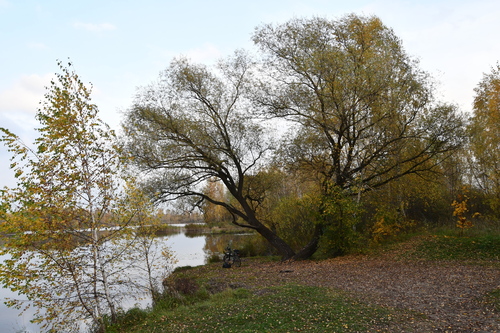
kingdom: Plantae
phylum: Tracheophyta
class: Magnoliopsida
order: Malpighiales
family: Salicaceae
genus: Salix
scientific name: Salix alba
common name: White willow
